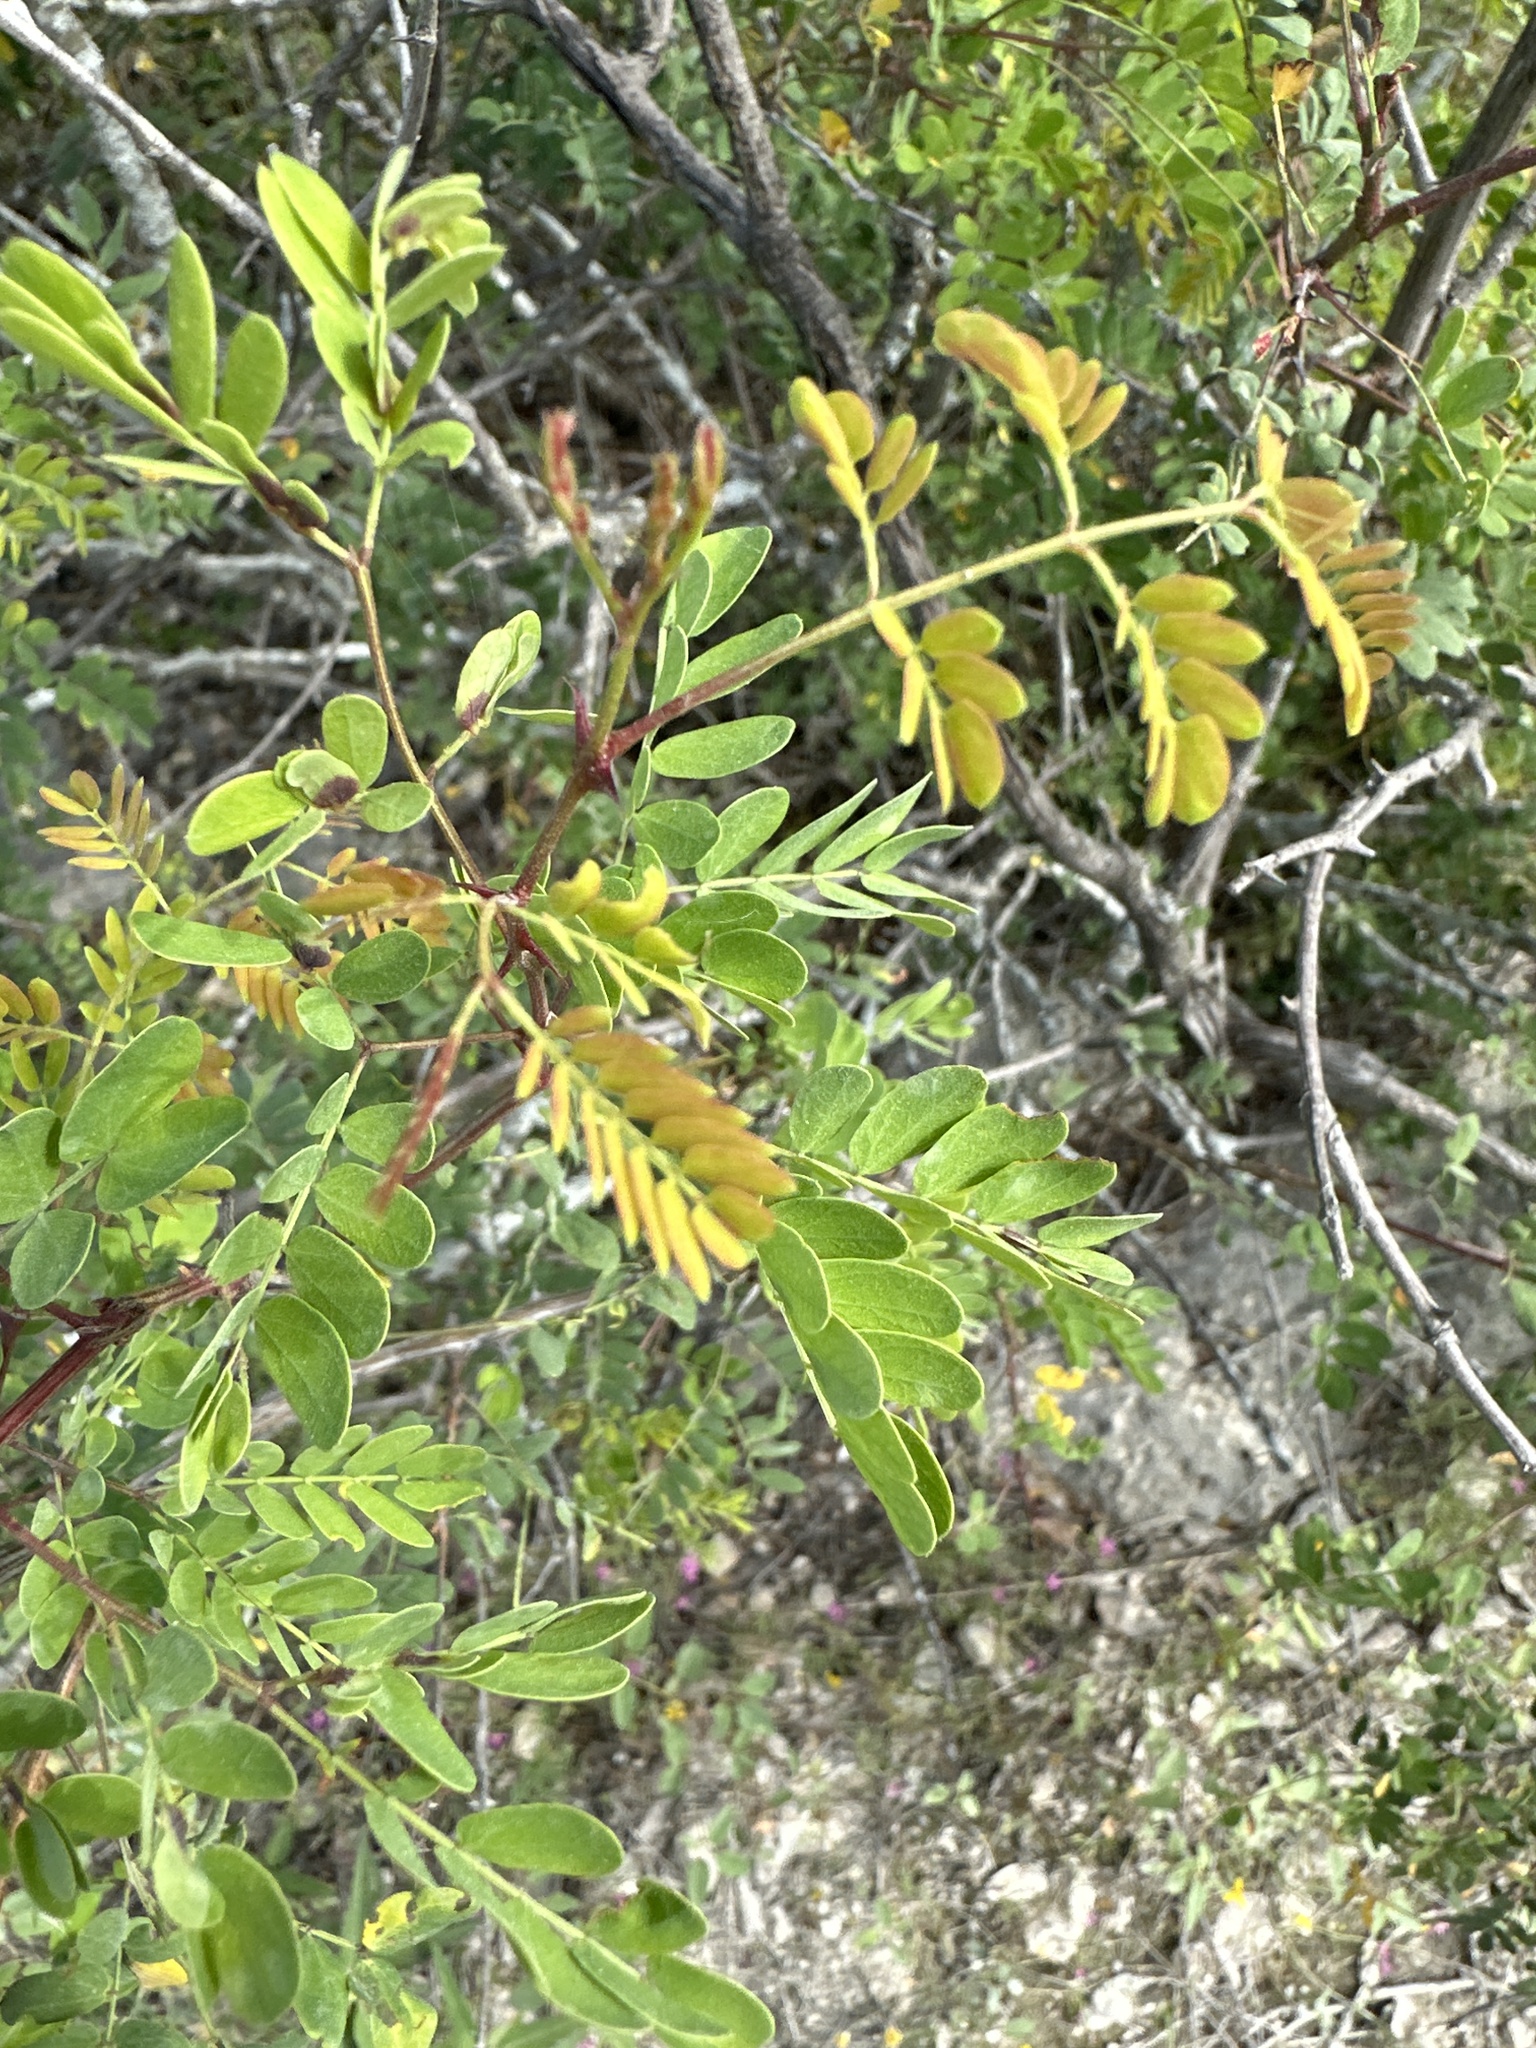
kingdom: Plantae
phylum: Tracheophyta
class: Magnoliopsida
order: Fabales
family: Fabaceae
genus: Senegalia
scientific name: Senegalia roemeriana
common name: Roemer's acacia
